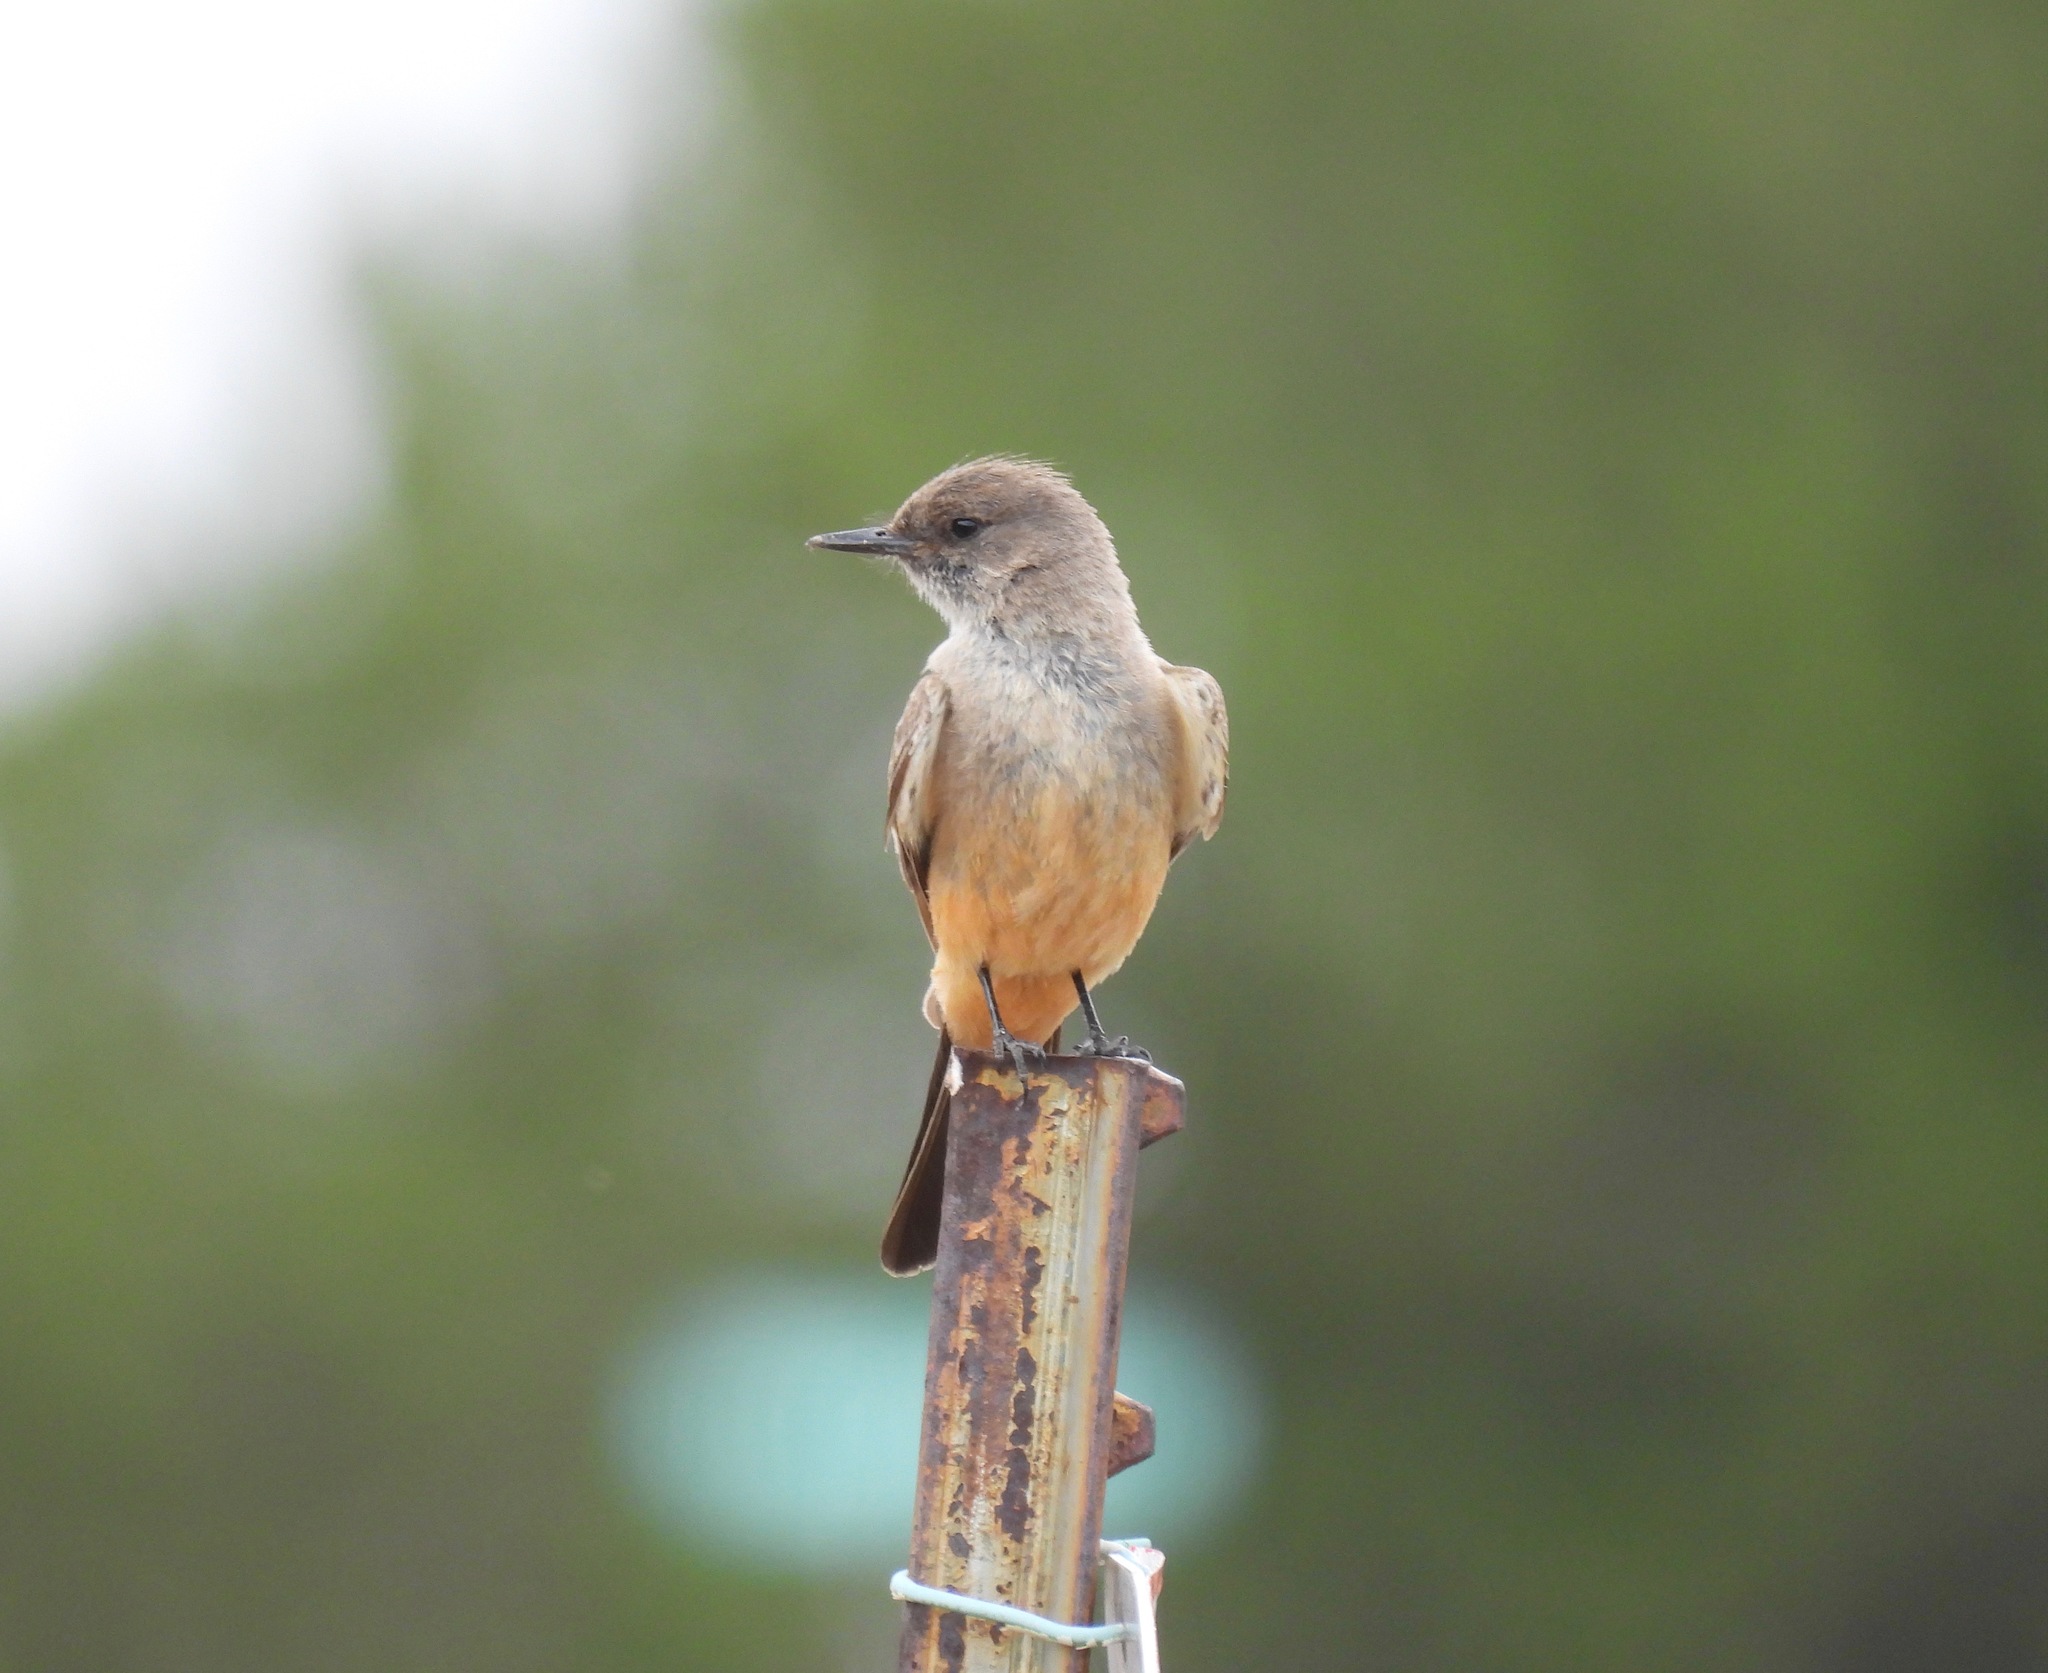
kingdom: Animalia
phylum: Chordata
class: Aves
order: Passeriformes
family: Tyrannidae
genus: Sayornis
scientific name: Sayornis saya
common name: Say's phoebe
